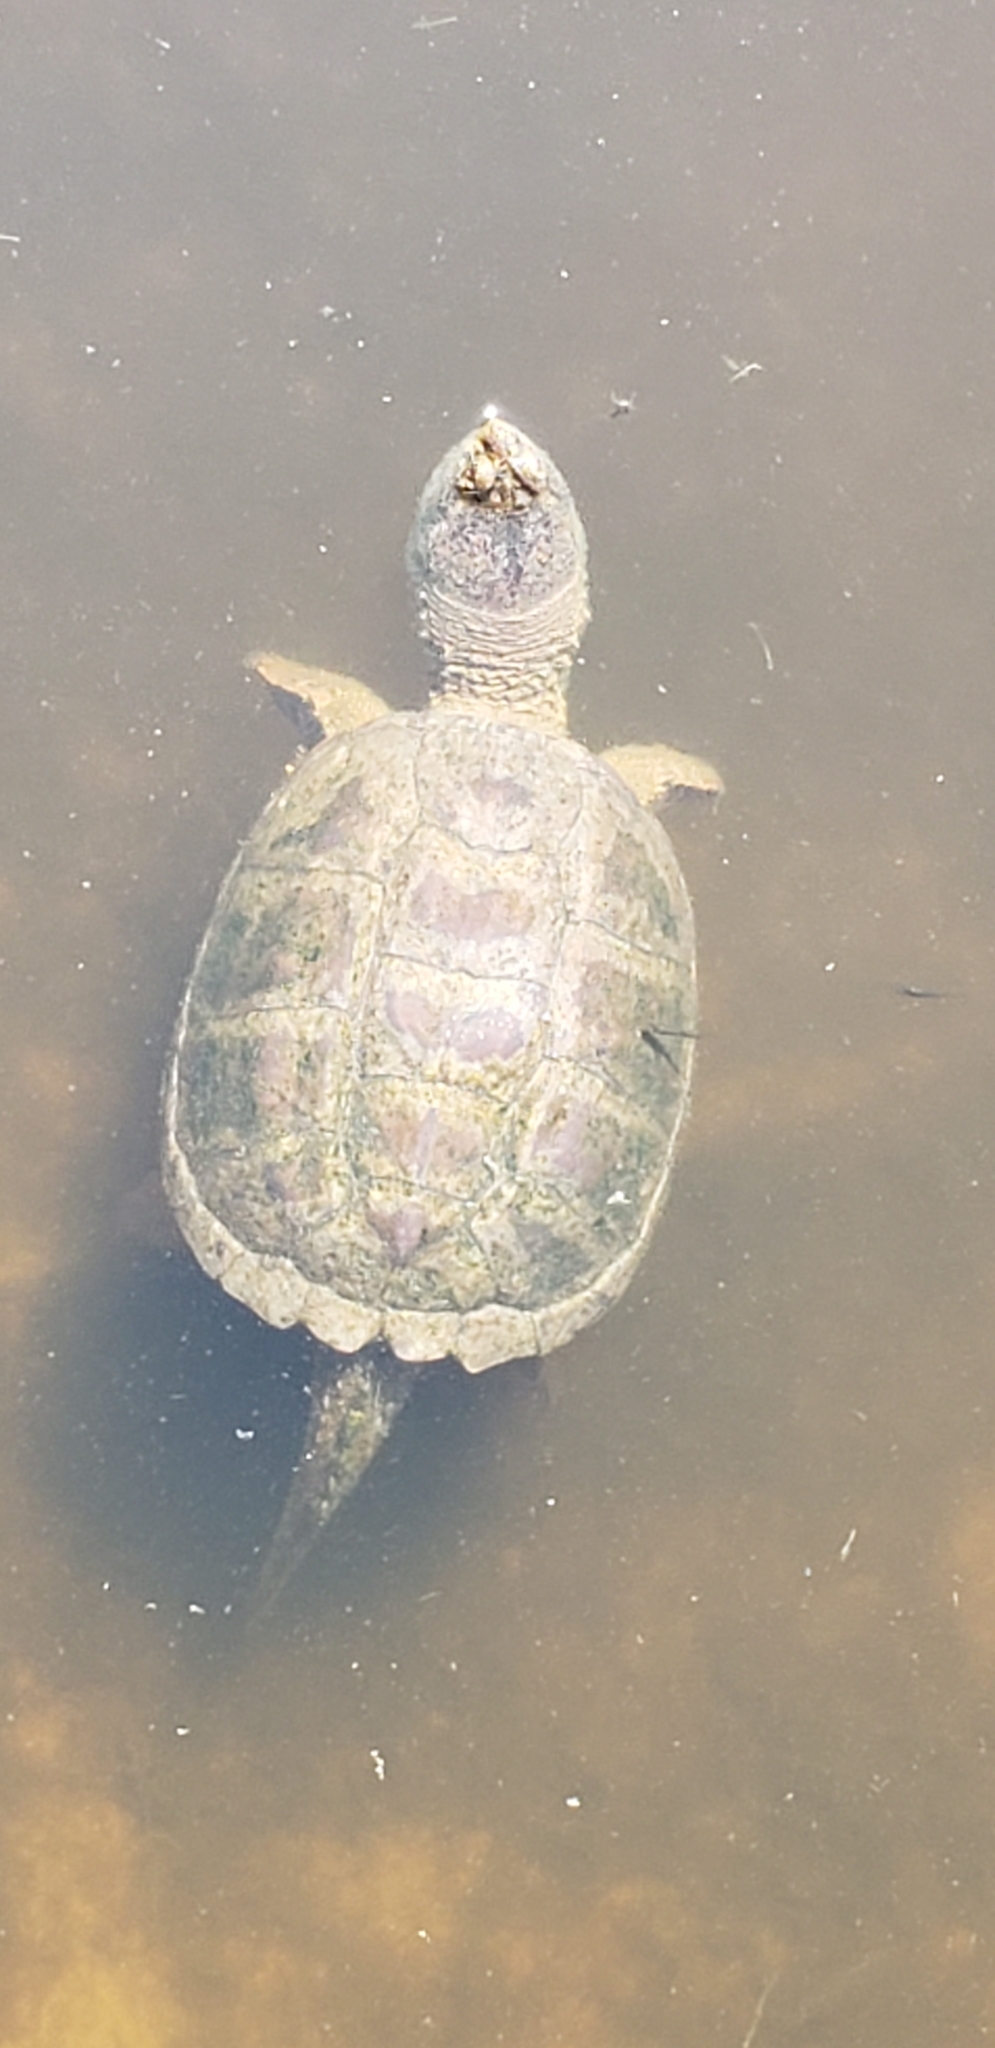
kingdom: Animalia
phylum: Chordata
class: Testudines
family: Chelydridae
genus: Chelydra
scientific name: Chelydra serpentina
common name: Common snapping turtle
